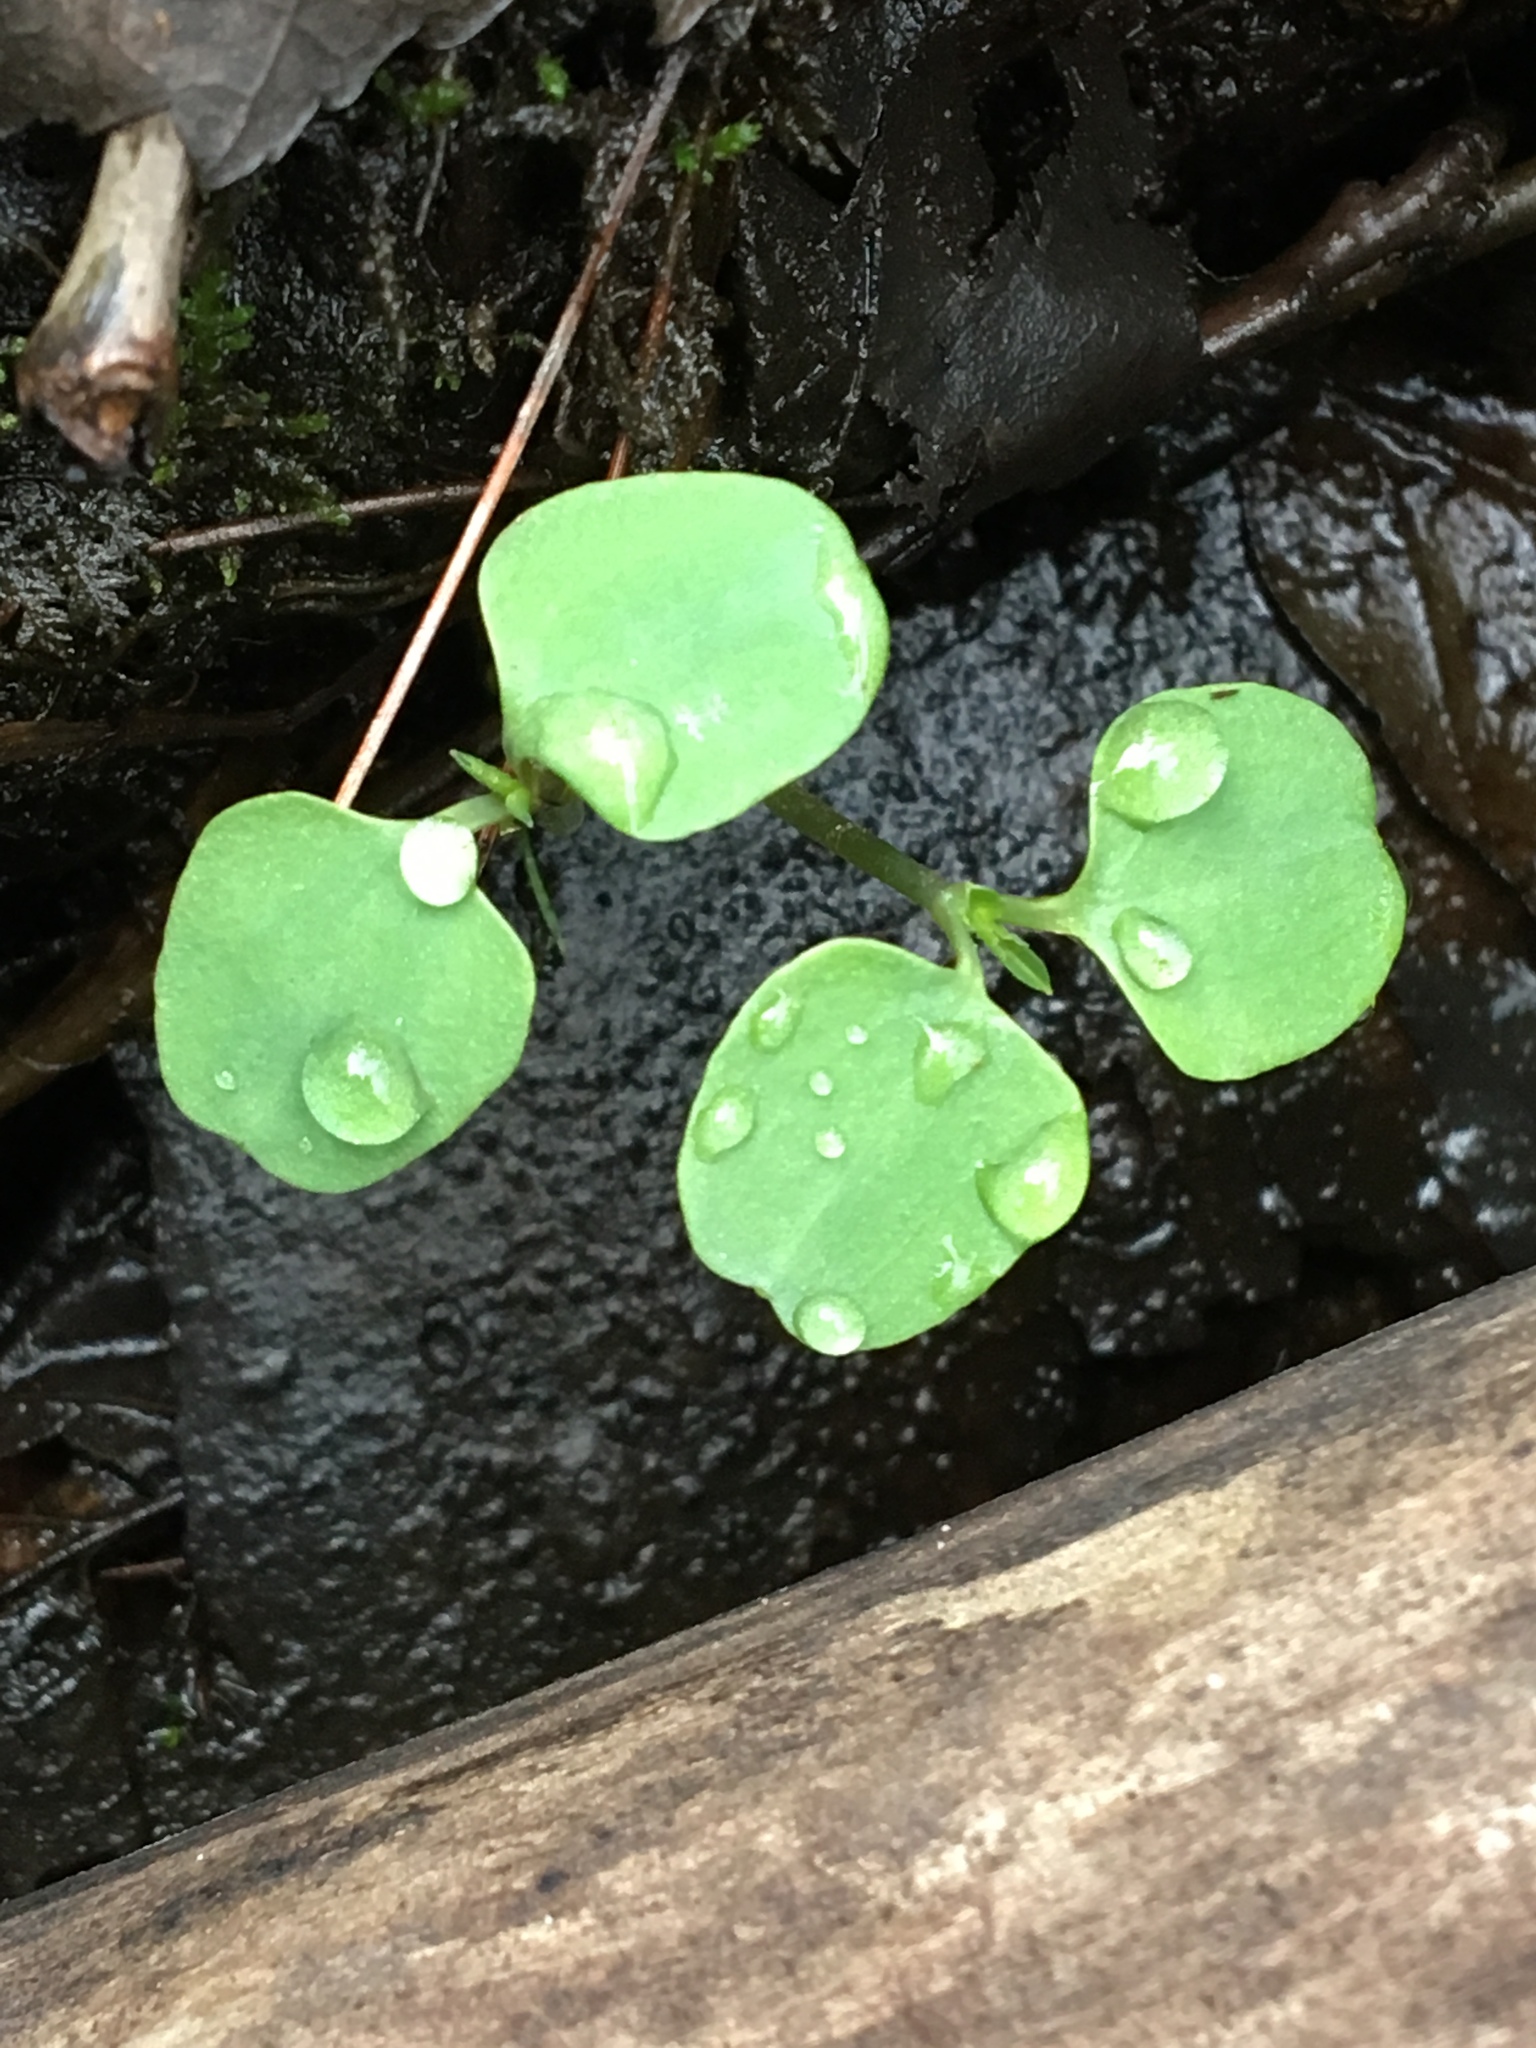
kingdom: Plantae
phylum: Tracheophyta
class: Magnoliopsida
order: Ericales
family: Balsaminaceae
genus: Impatiens
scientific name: Impatiens
